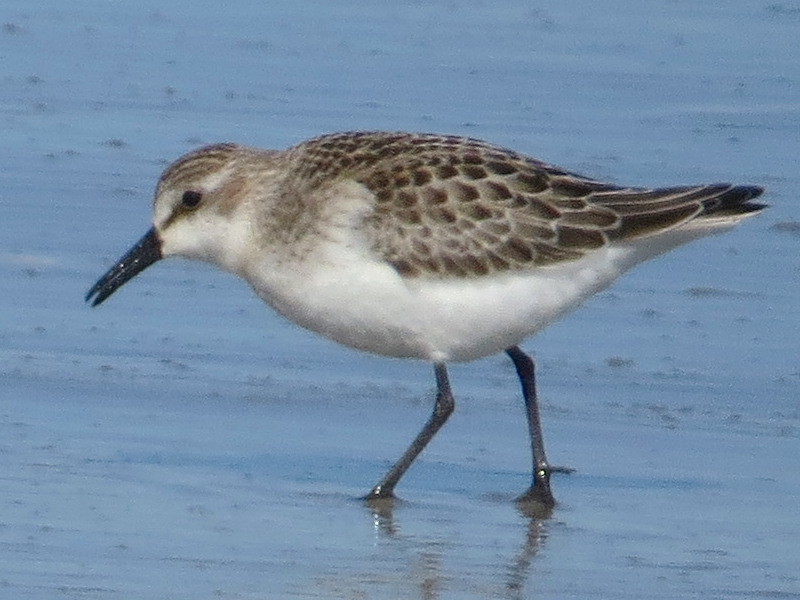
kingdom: Animalia
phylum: Chordata
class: Aves
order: Charadriiformes
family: Scolopacidae
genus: Calidris
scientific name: Calidris pusilla
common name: Semipalmated sandpiper
